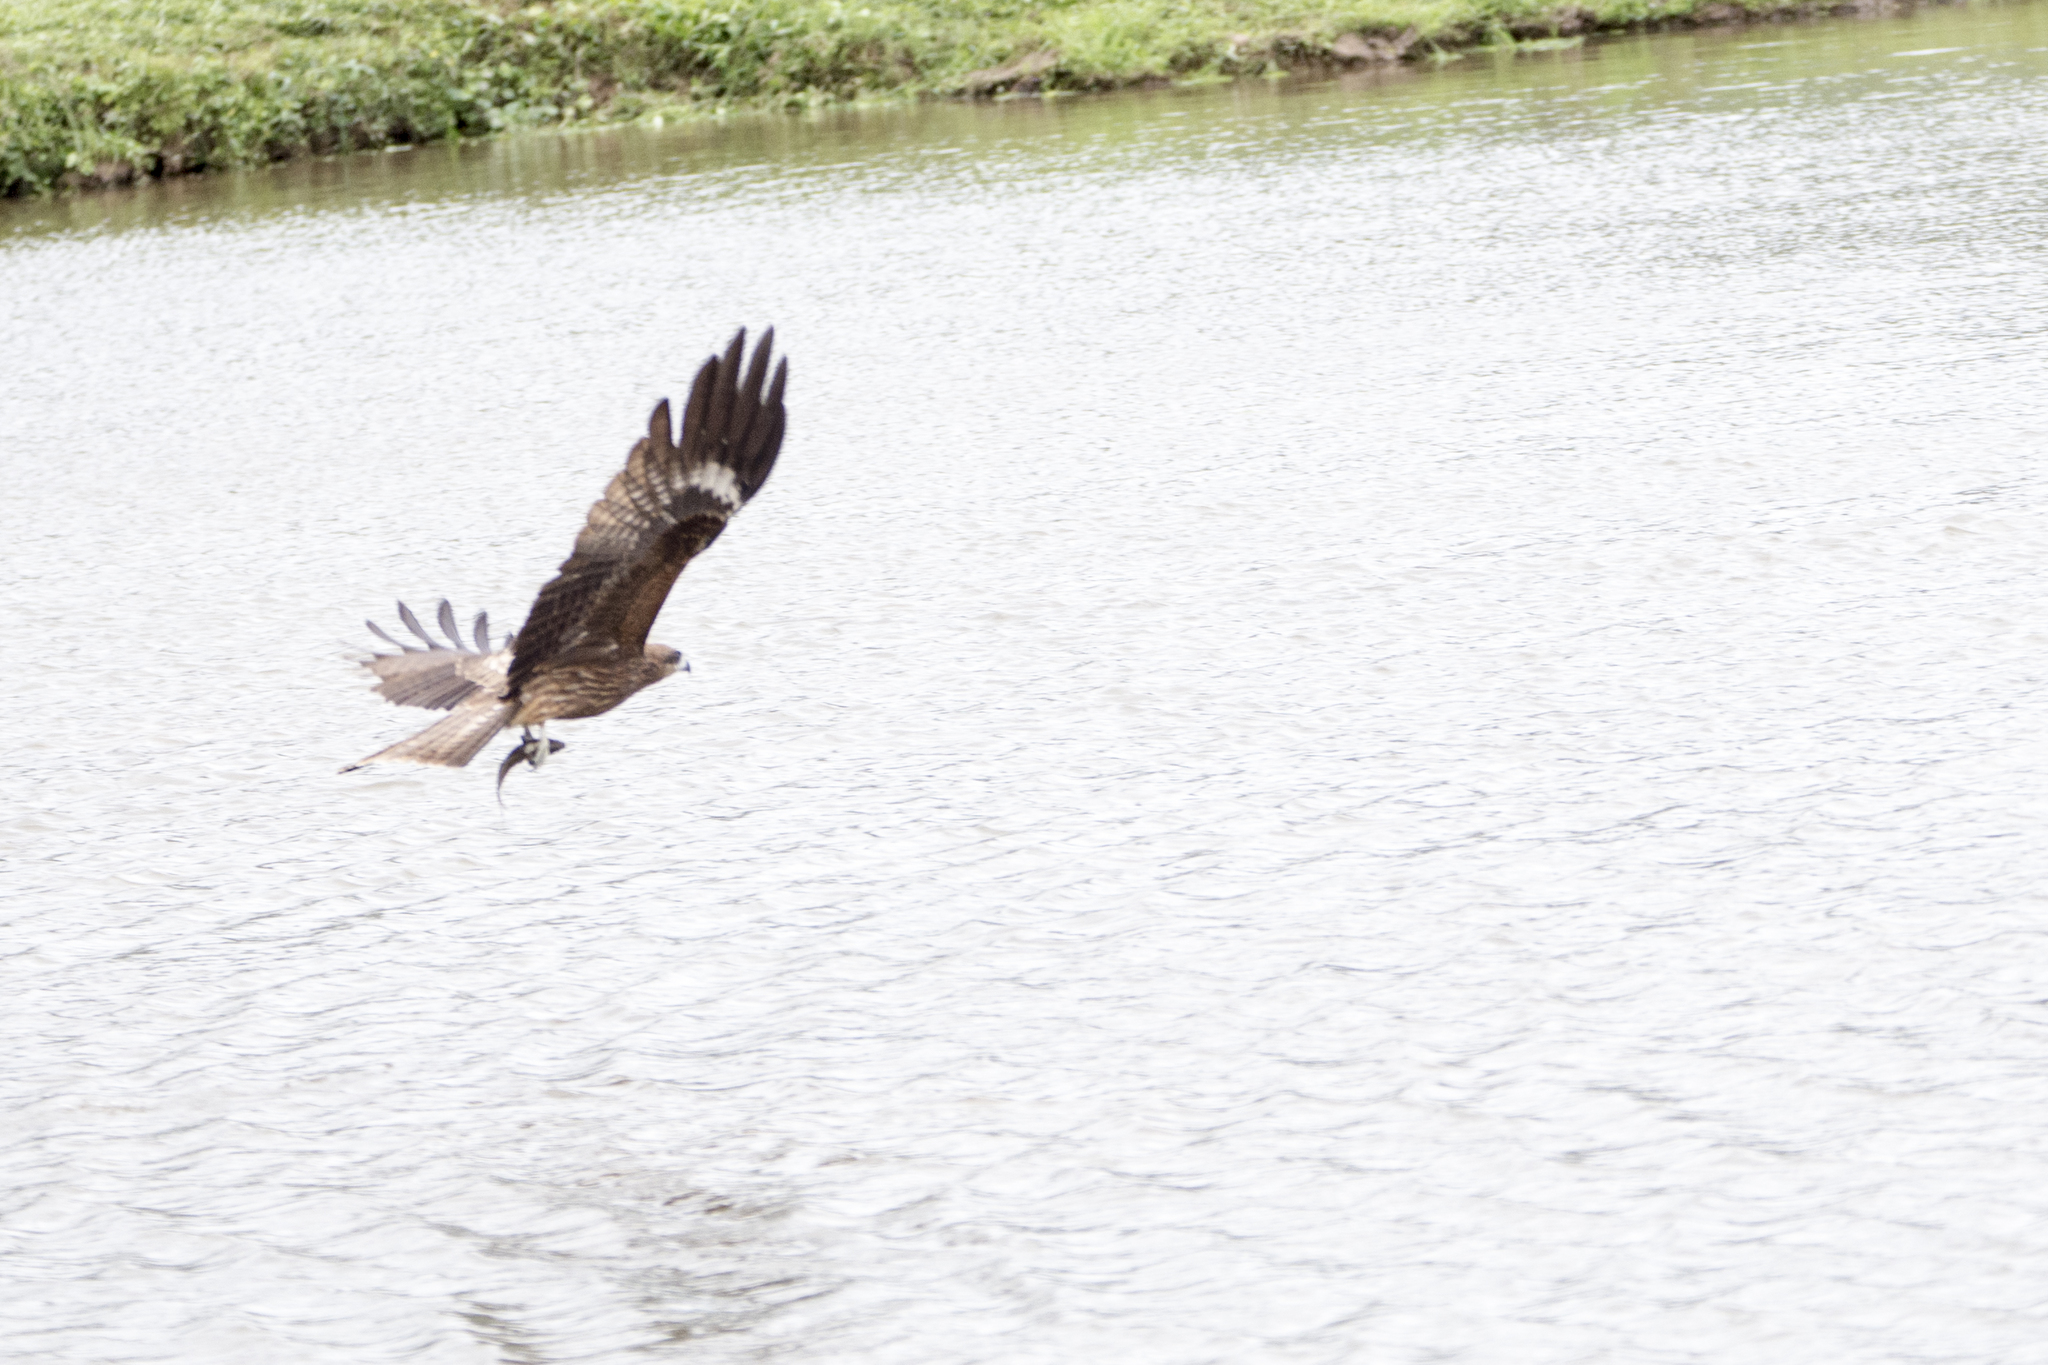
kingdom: Animalia
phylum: Chordata
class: Aves
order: Accipitriformes
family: Accipitridae
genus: Milvus
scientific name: Milvus migrans
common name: Black kite
